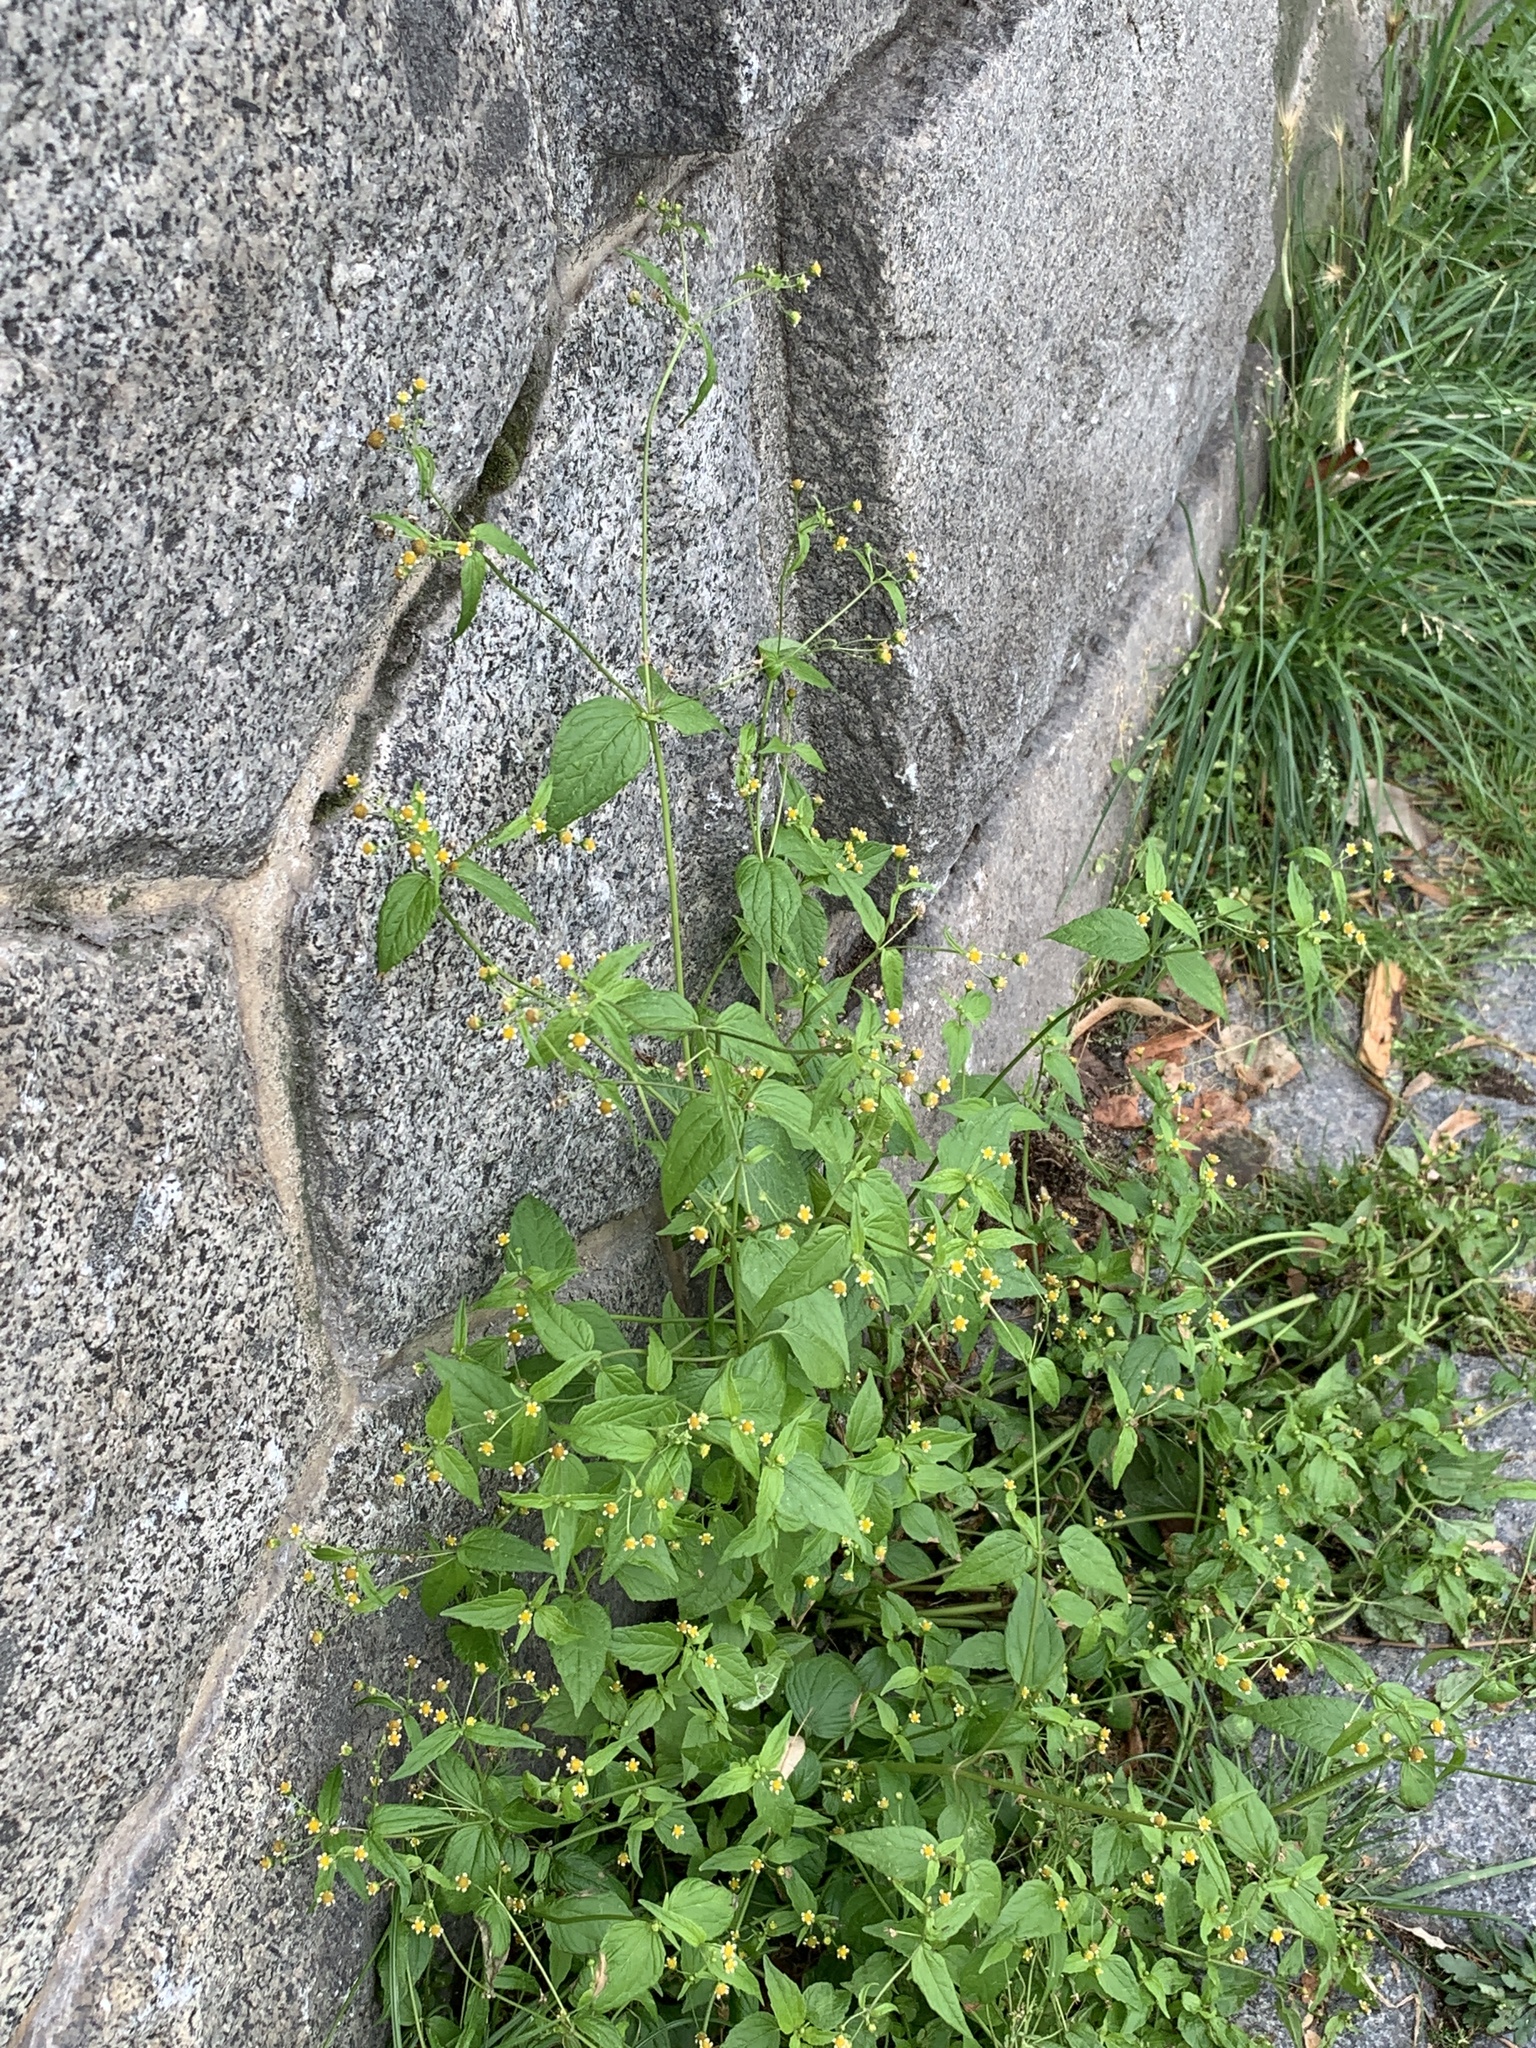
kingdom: Plantae
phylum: Tracheophyta
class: Magnoliopsida
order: Asterales
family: Asteraceae
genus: Galinsoga
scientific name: Galinsoga parviflora
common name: Gallant soldier
